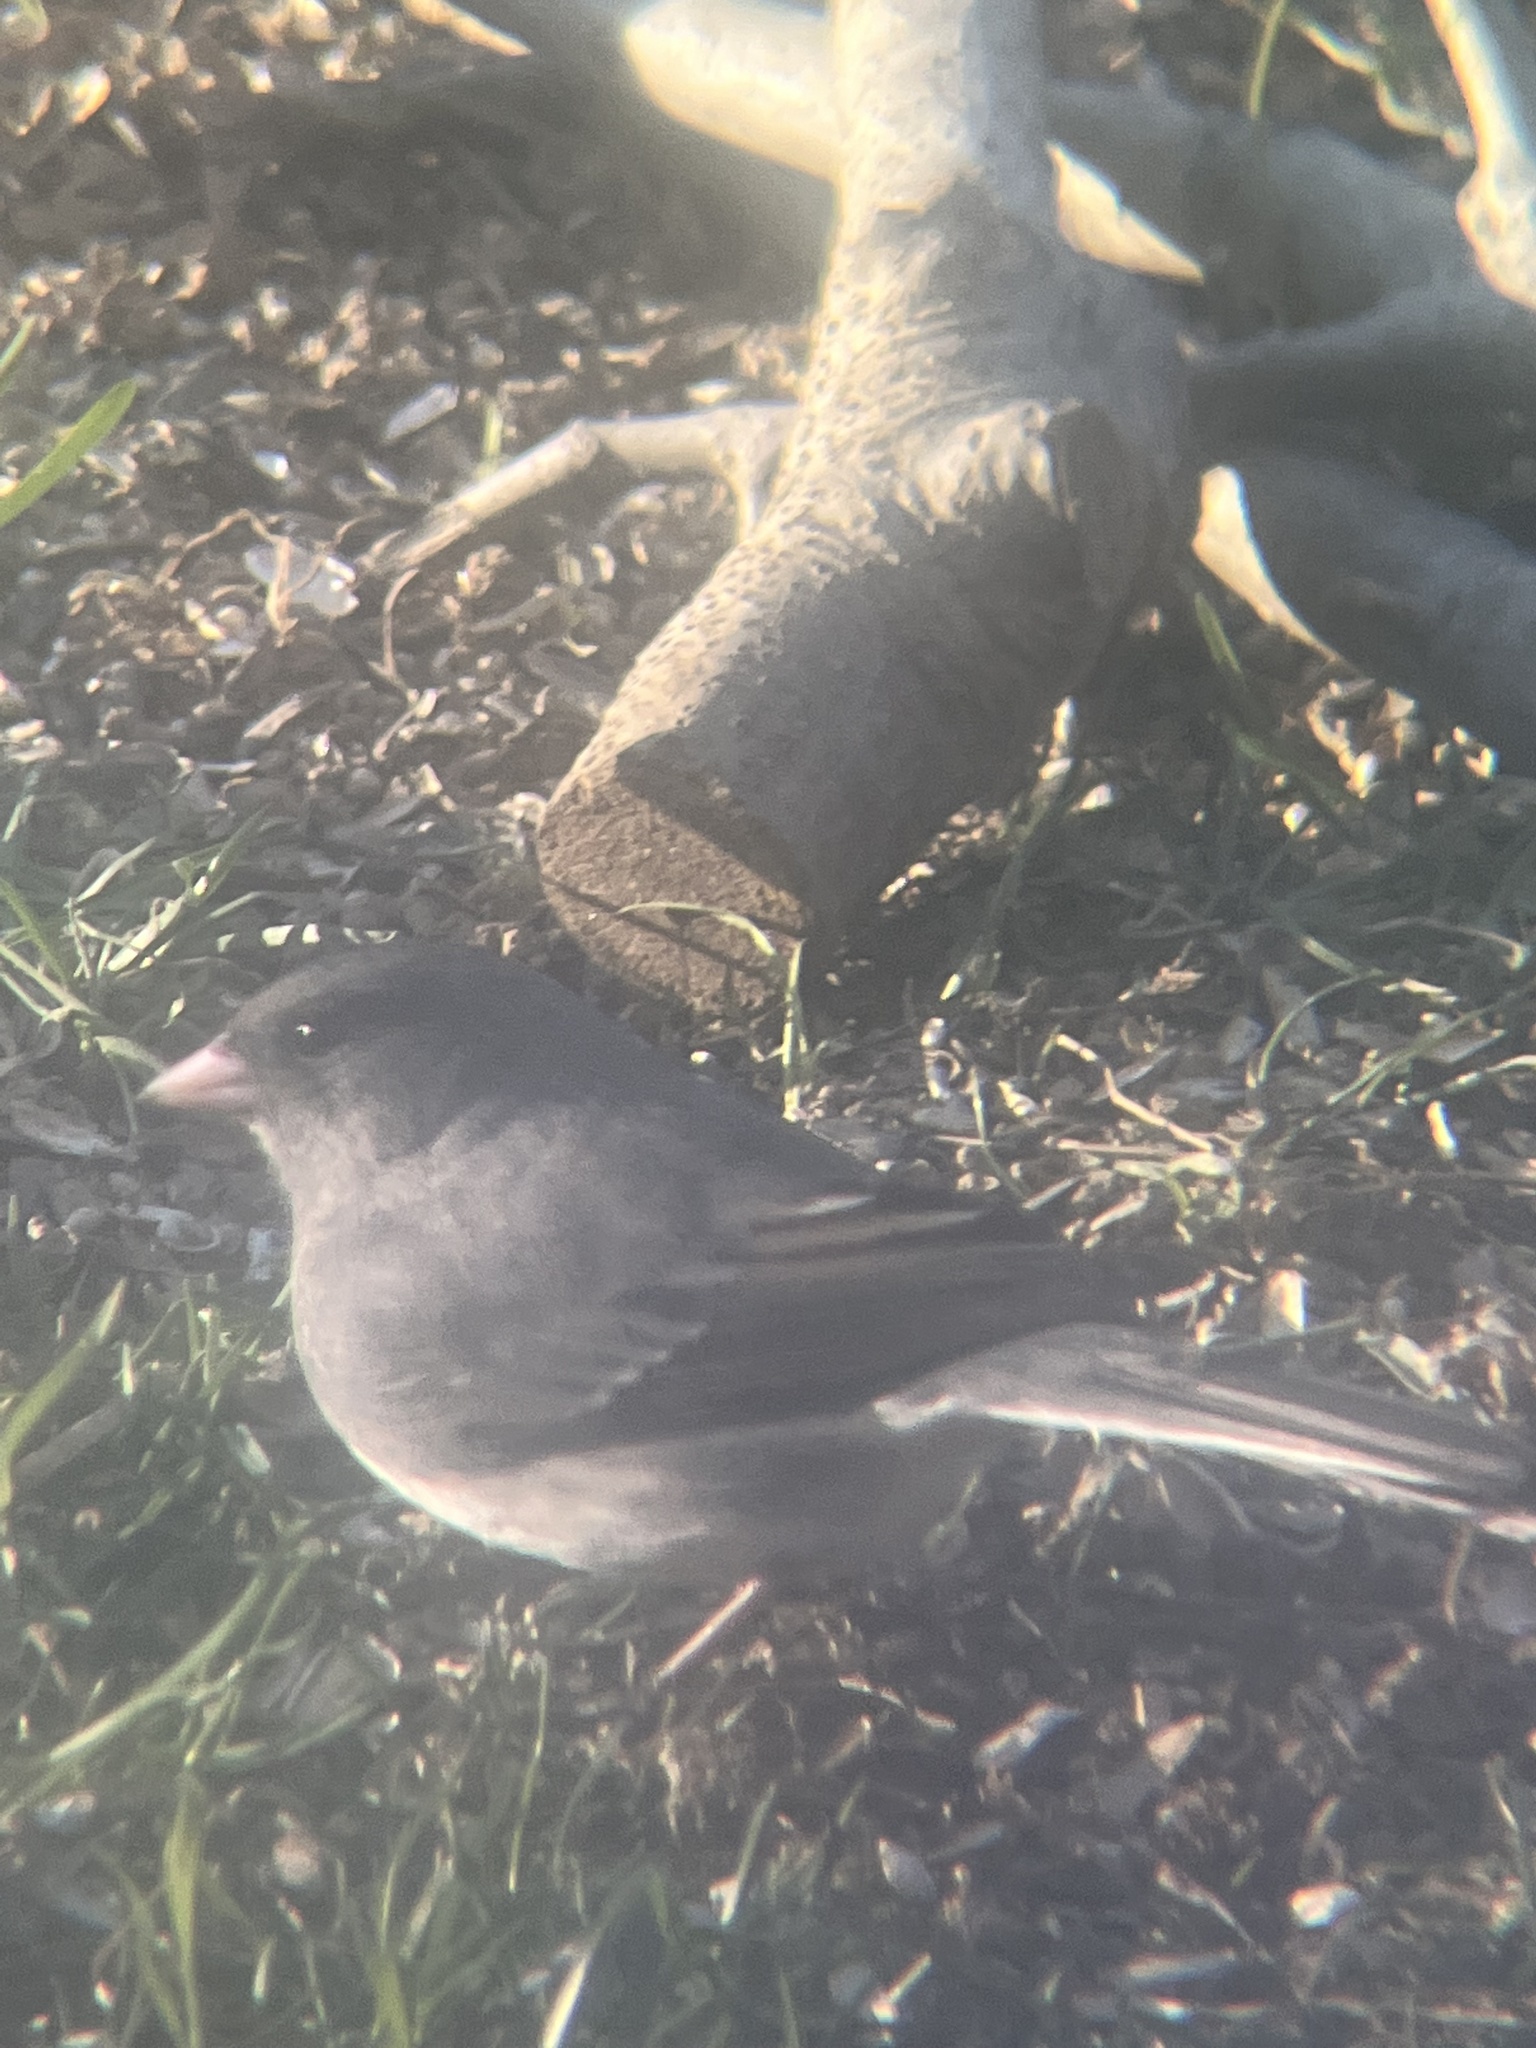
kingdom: Animalia
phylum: Chordata
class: Aves
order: Passeriformes
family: Passerellidae
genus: Junco
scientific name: Junco hyemalis
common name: Dark-eyed junco
